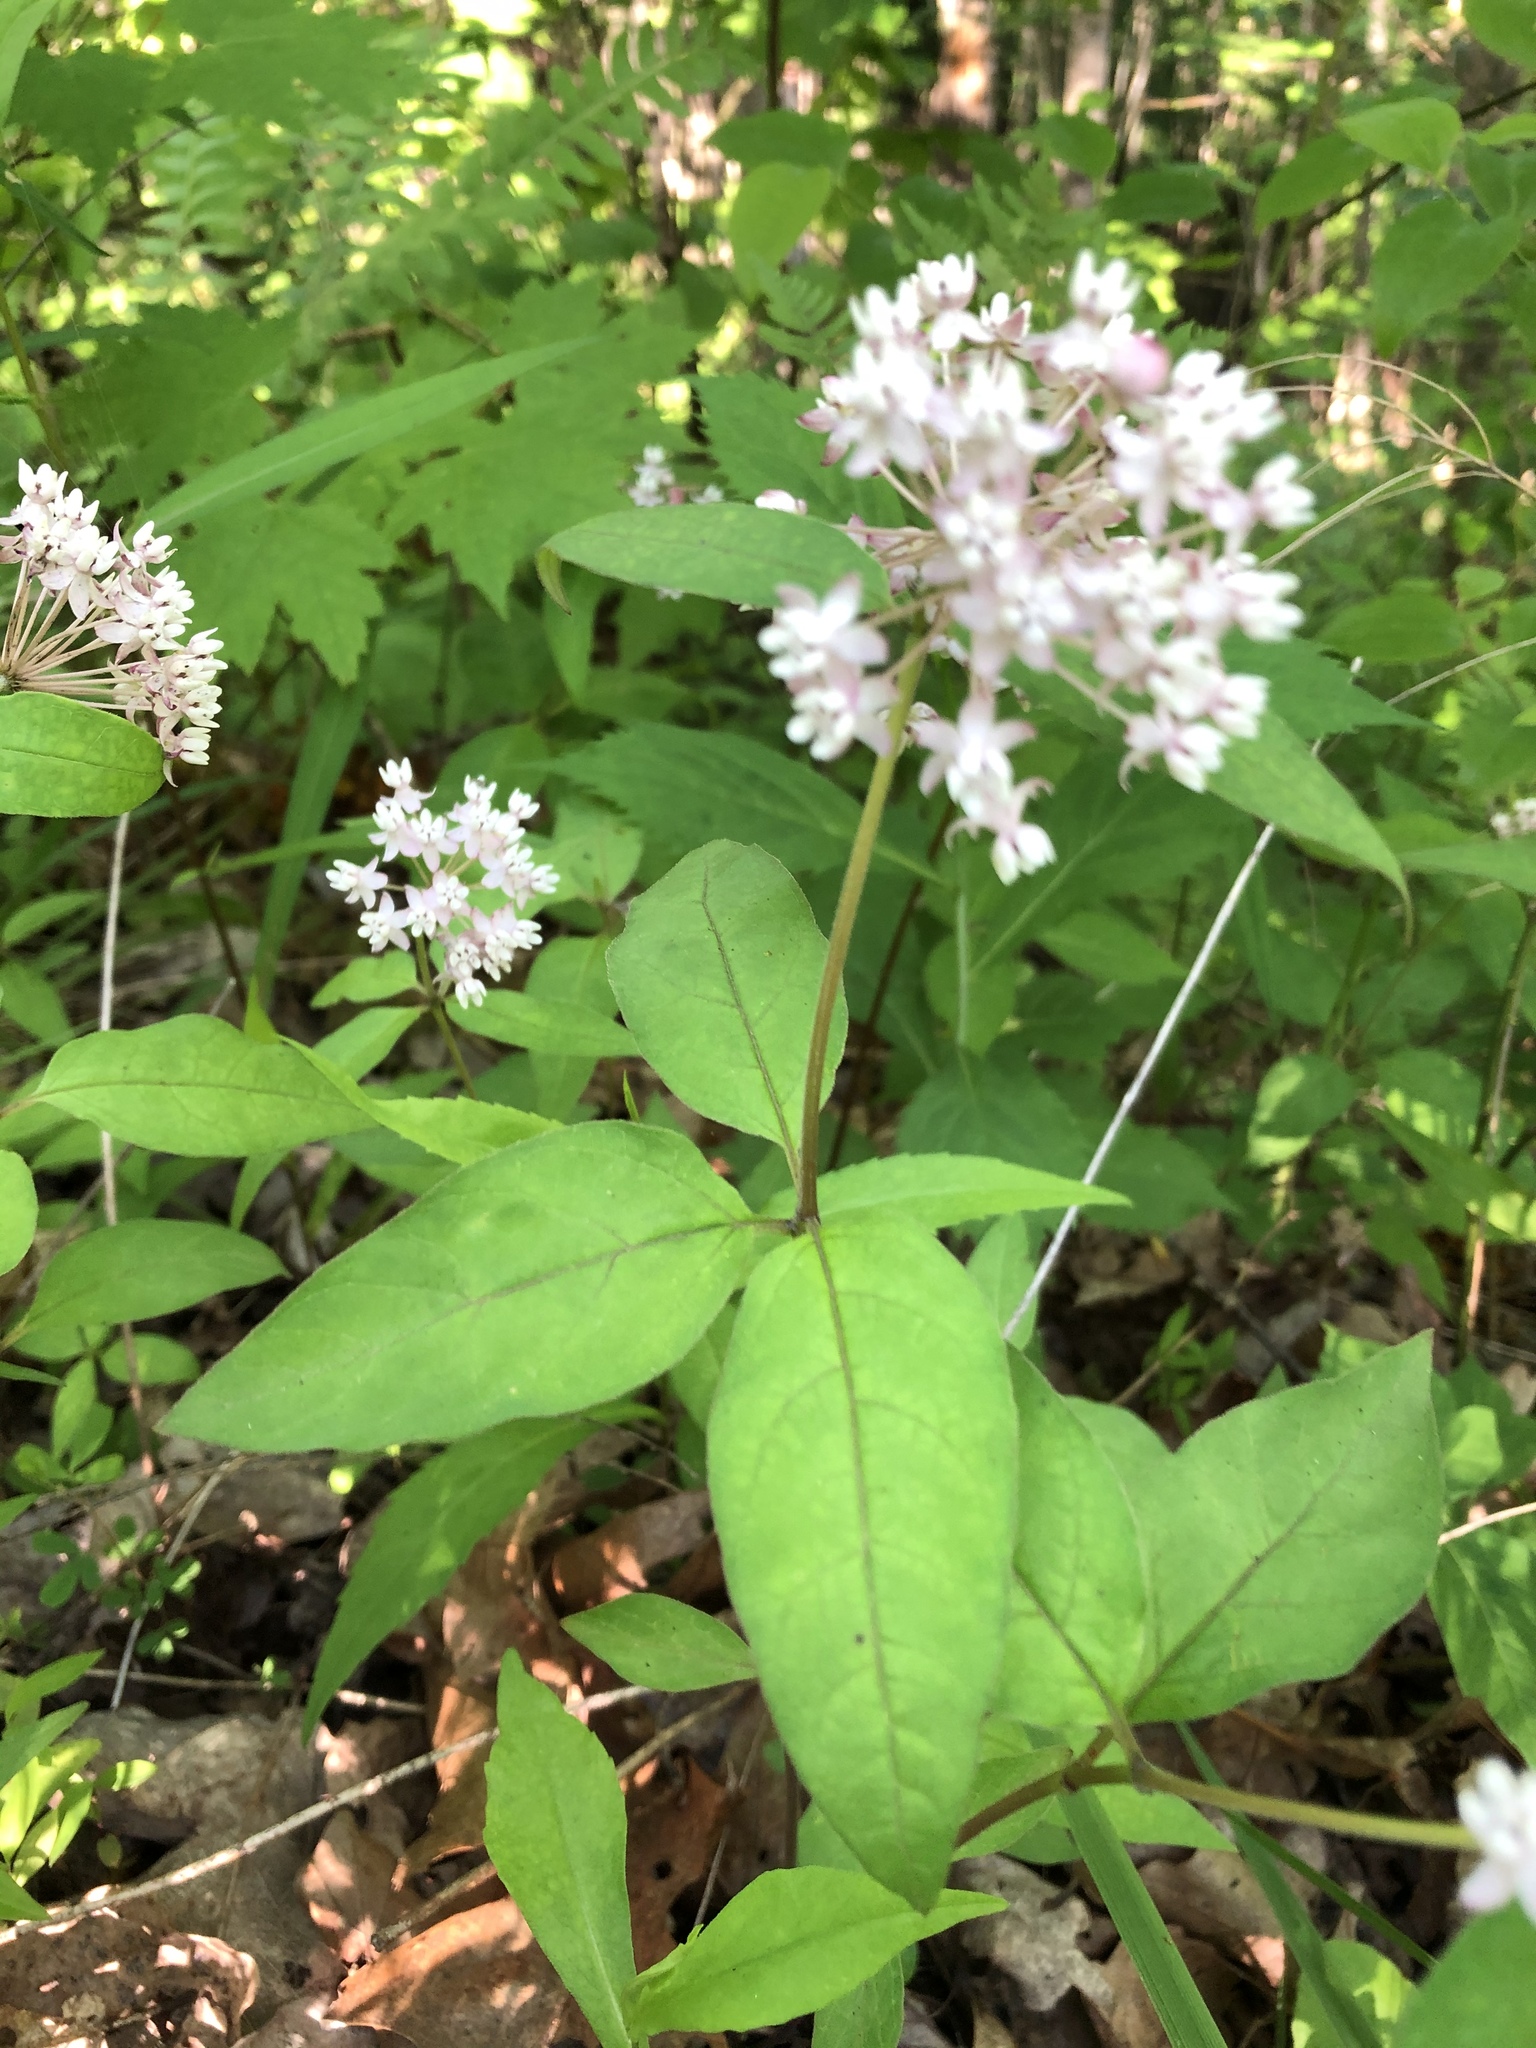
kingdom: Plantae
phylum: Tracheophyta
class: Magnoliopsida
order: Gentianales
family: Apocynaceae
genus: Asclepias
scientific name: Asclepias quadrifolia
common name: Whorled milkweed
